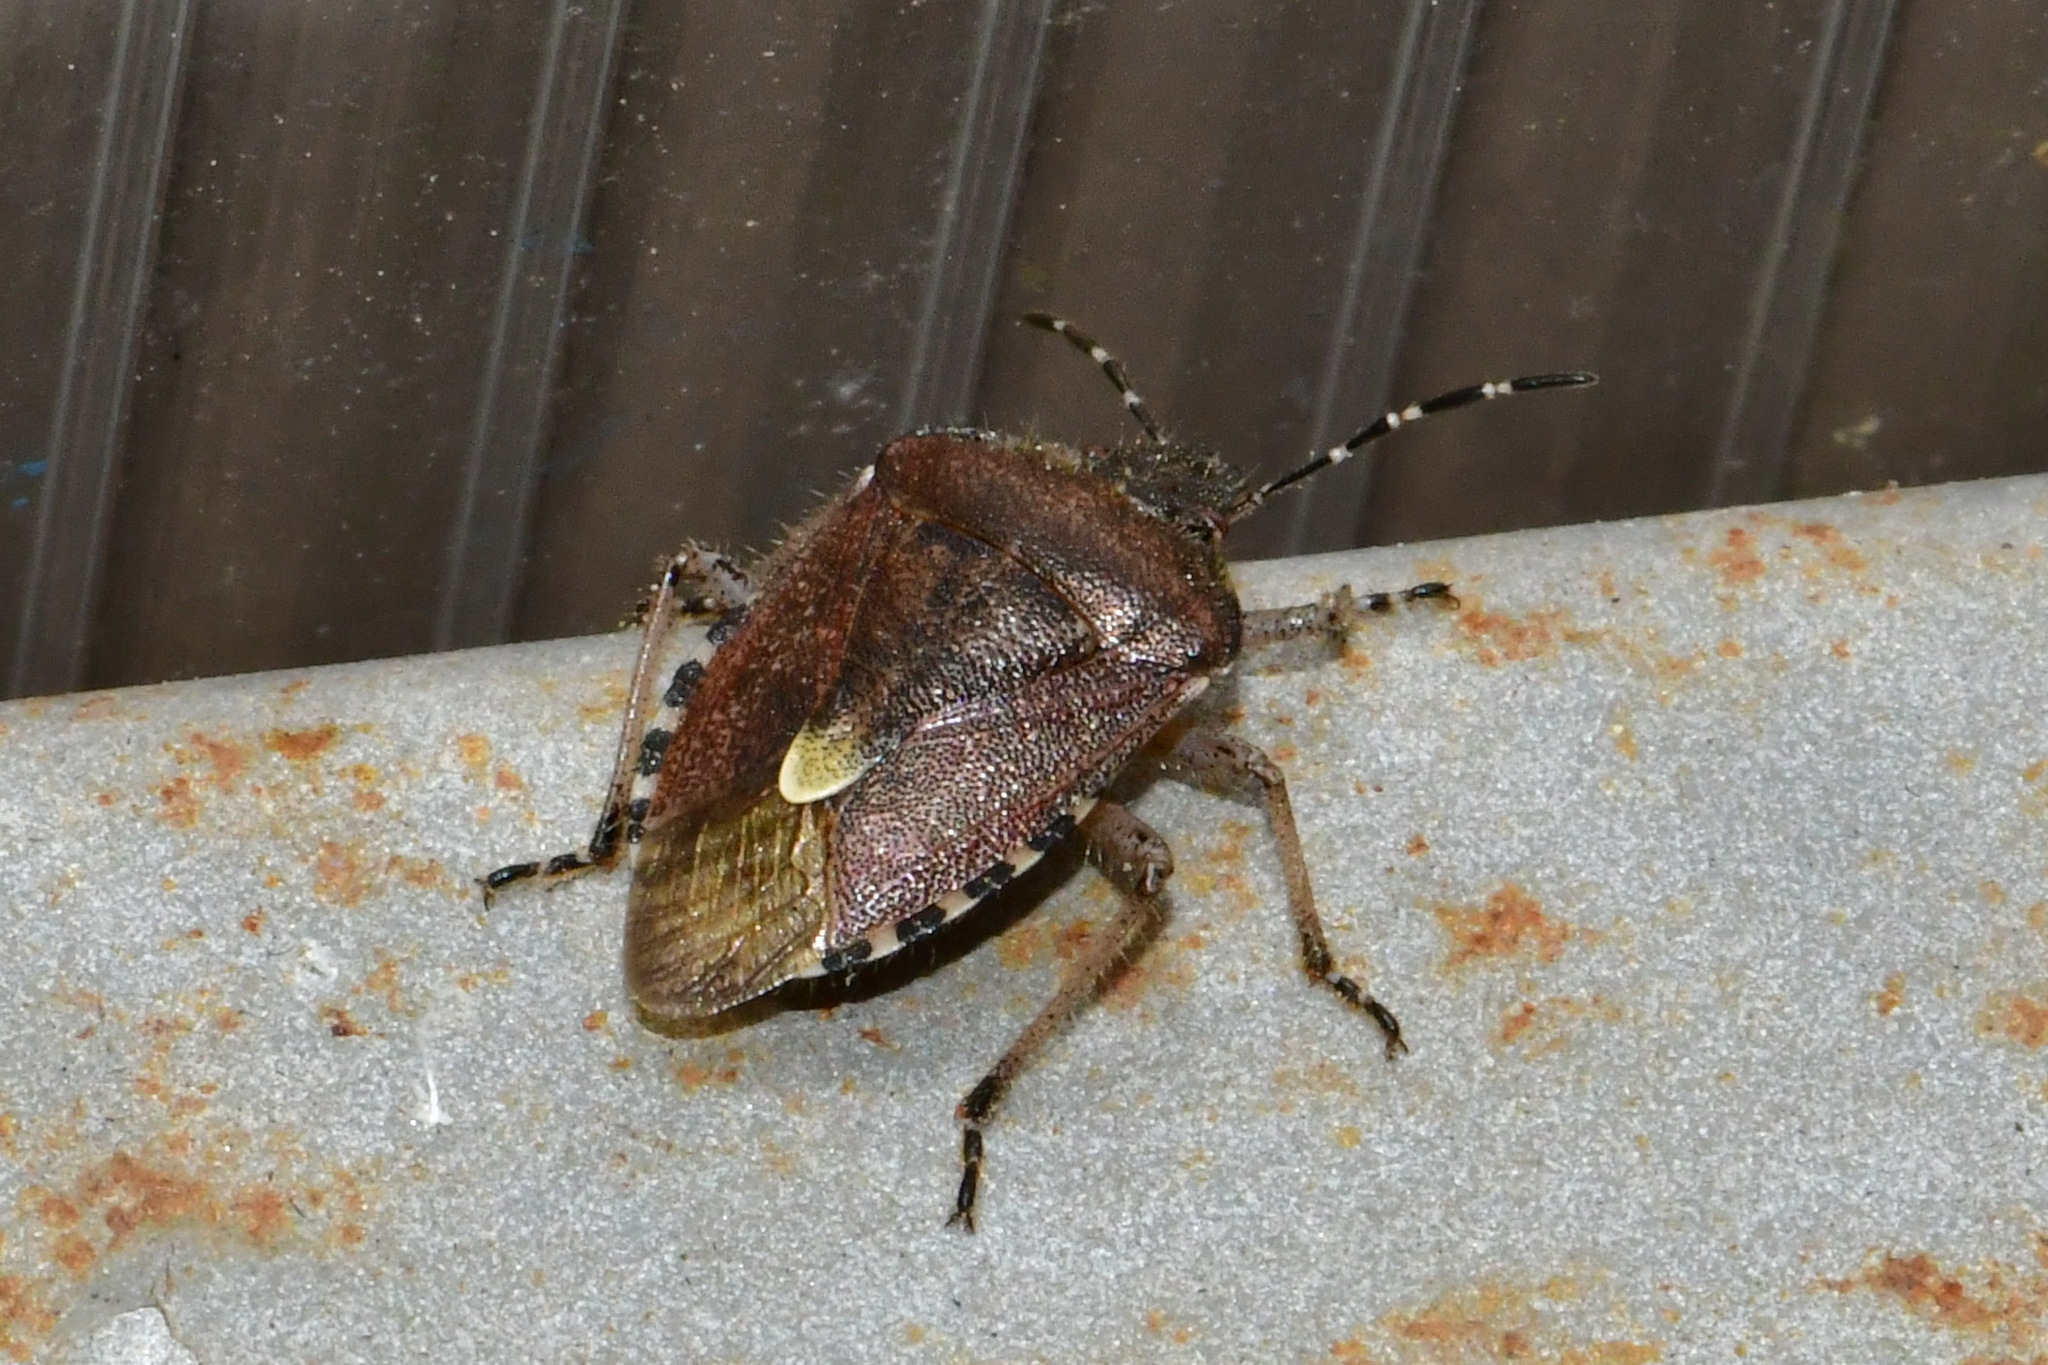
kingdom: Animalia
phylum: Arthropoda
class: Insecta
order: Hemiptera
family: Pentatomidae
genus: Dolycoris
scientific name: Dolycoris baccarum
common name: Sloe bug
